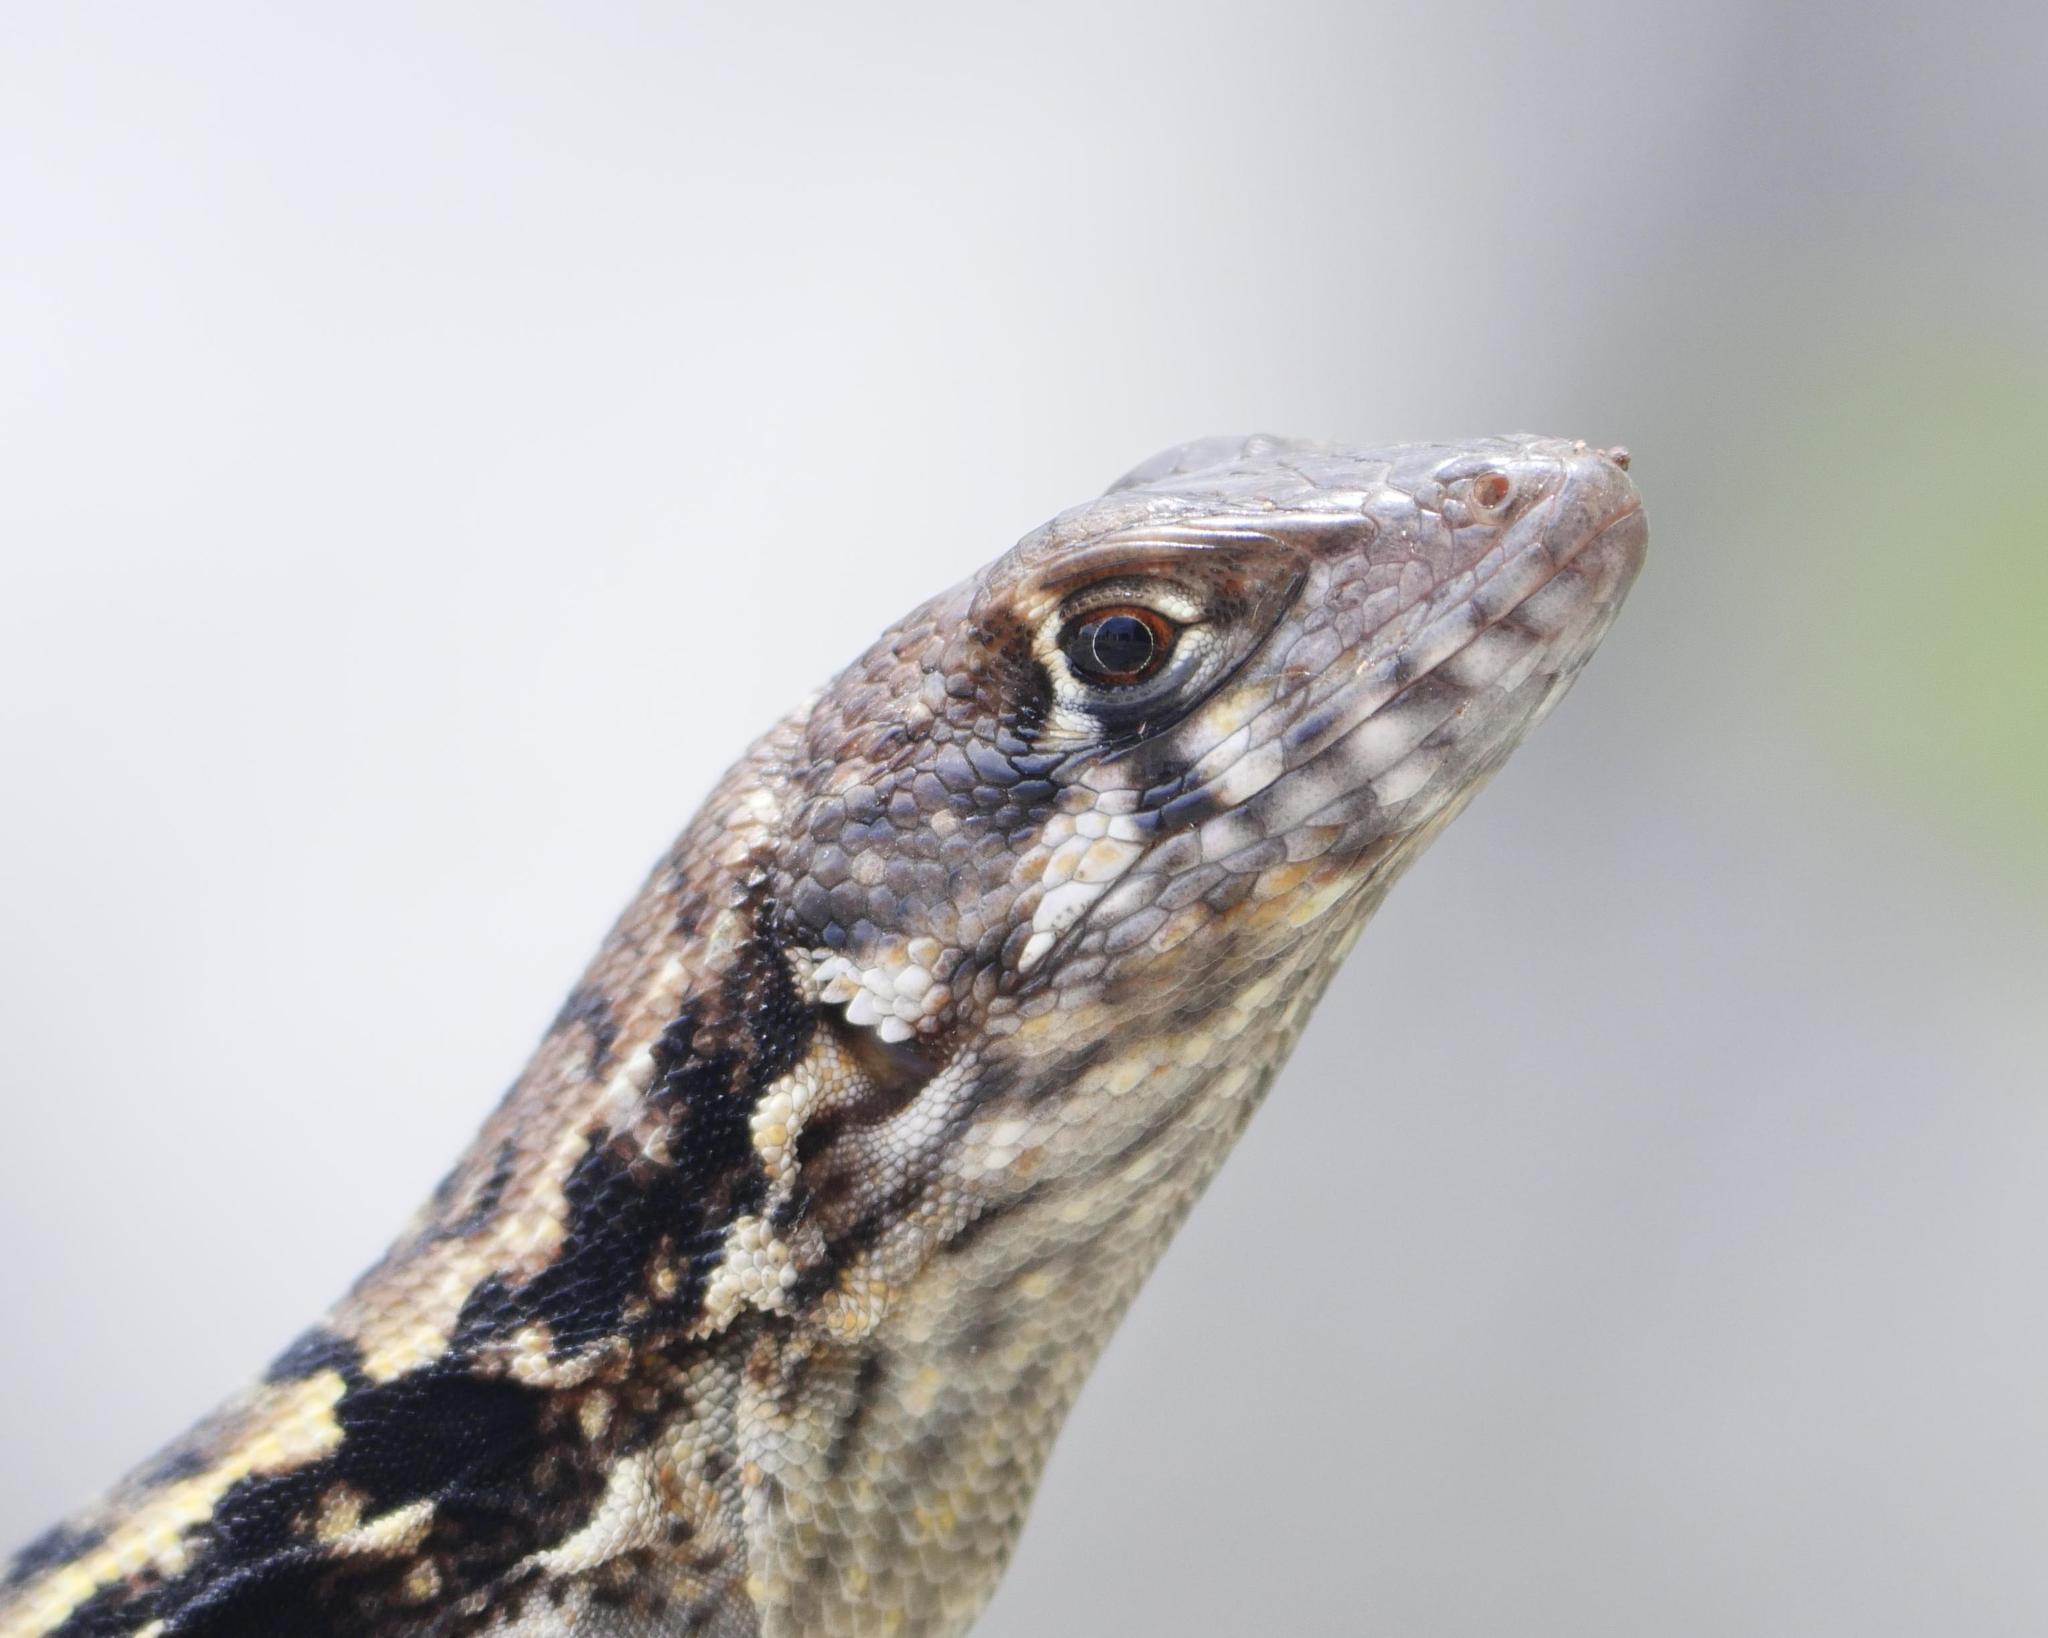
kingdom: Animalia
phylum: Chordata
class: Squamata
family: Leiocephalidae
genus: Leiocephalus
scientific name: Leiocephalus psammodromus
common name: Bastion cay curlytail lizard
